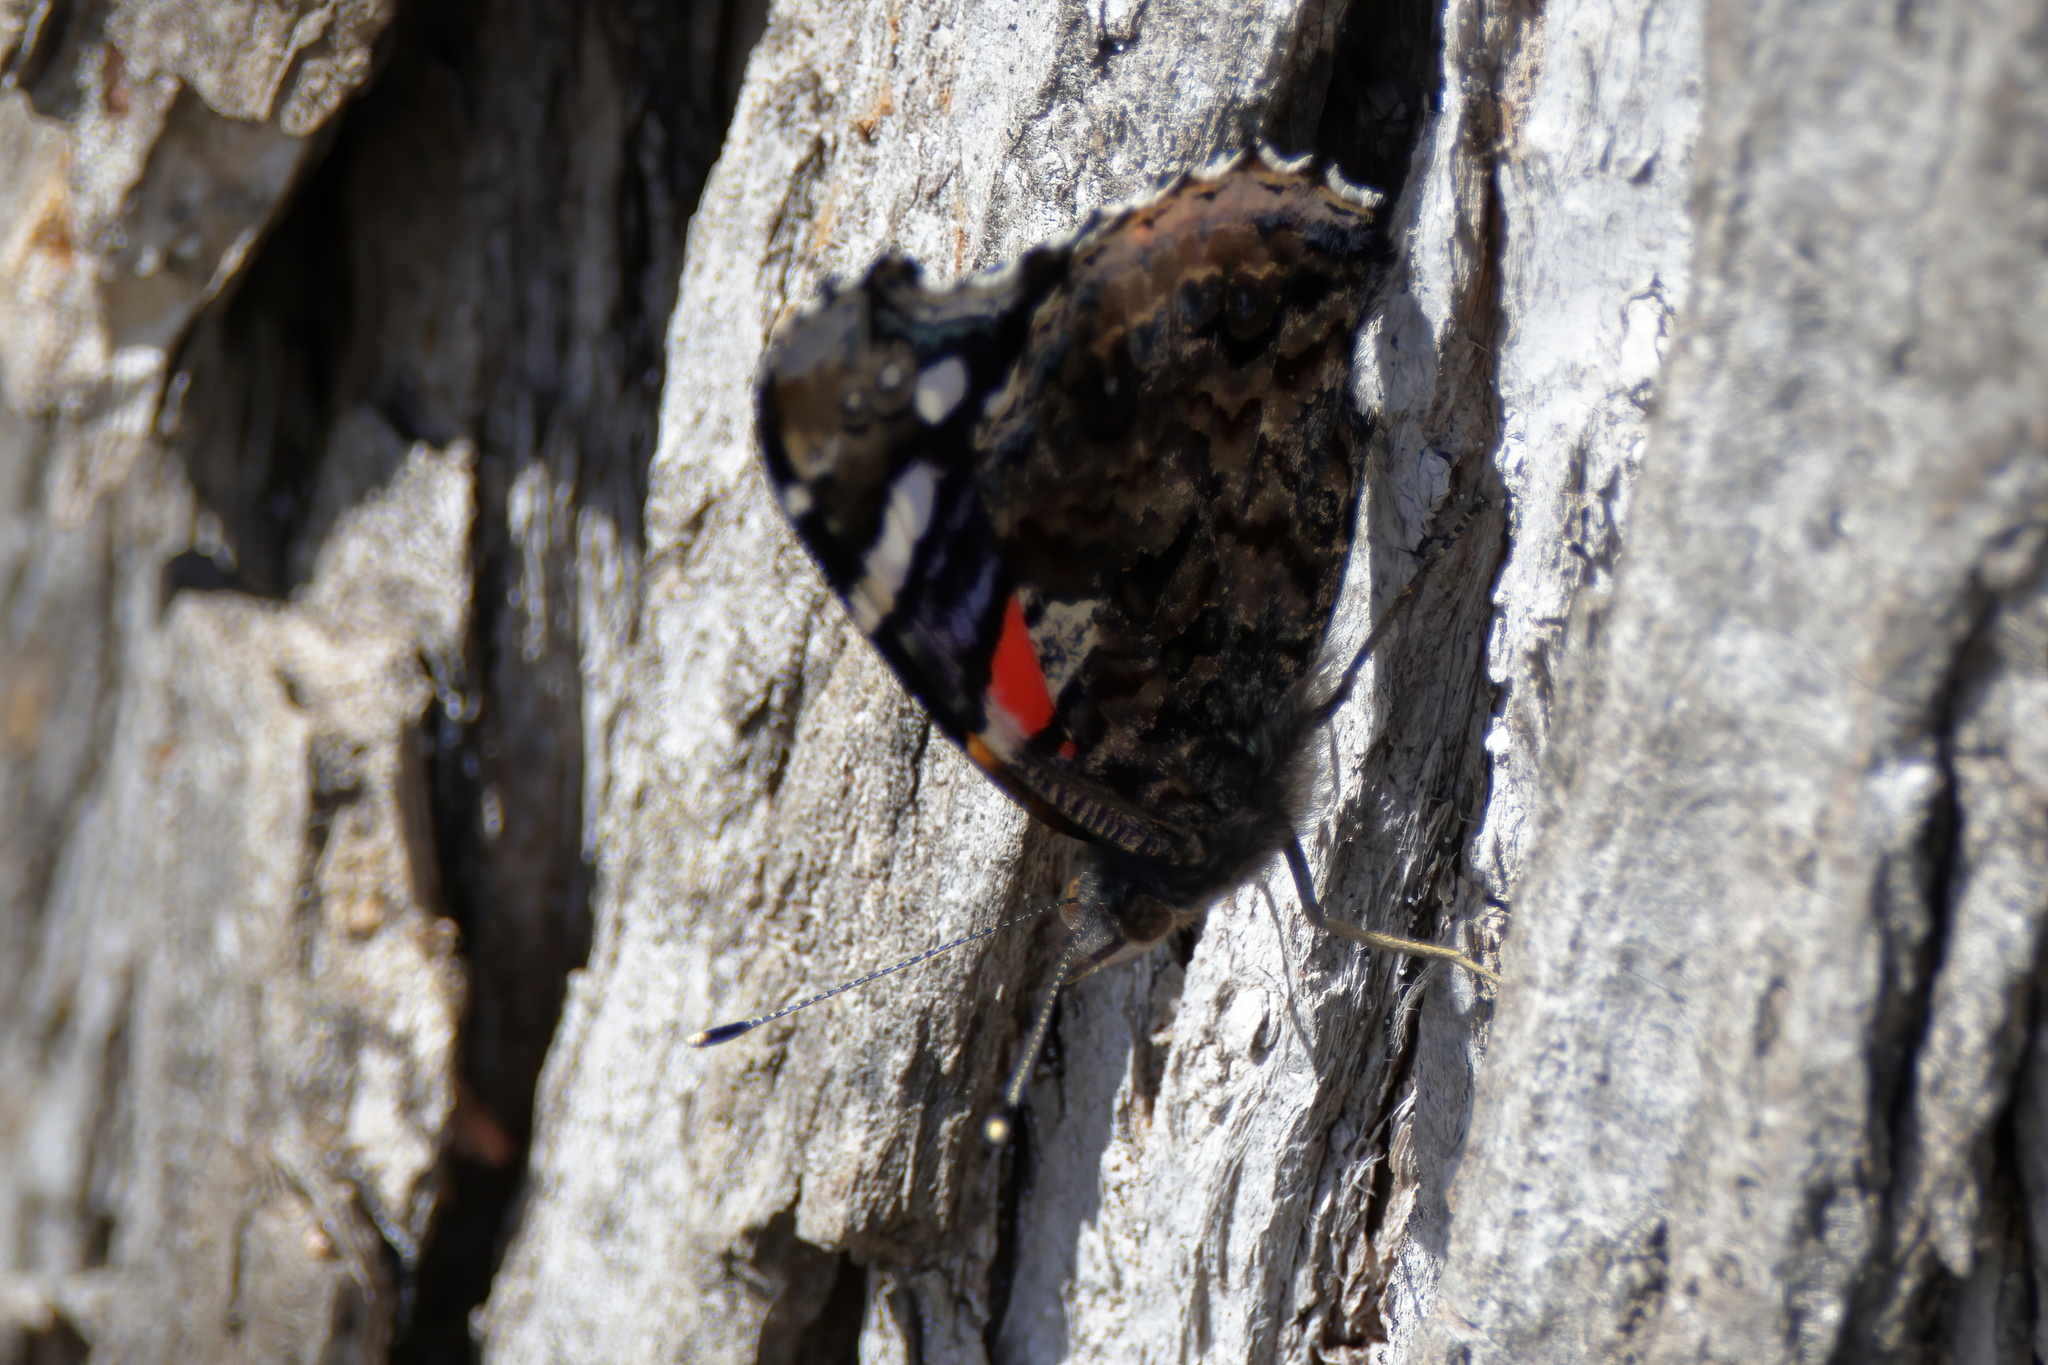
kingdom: Animalia
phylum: Arthropoda
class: Insecta
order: Lepidoptera
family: Nymphalidae
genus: Vanessa
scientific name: Vanessa atalanta
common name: Red admiral
